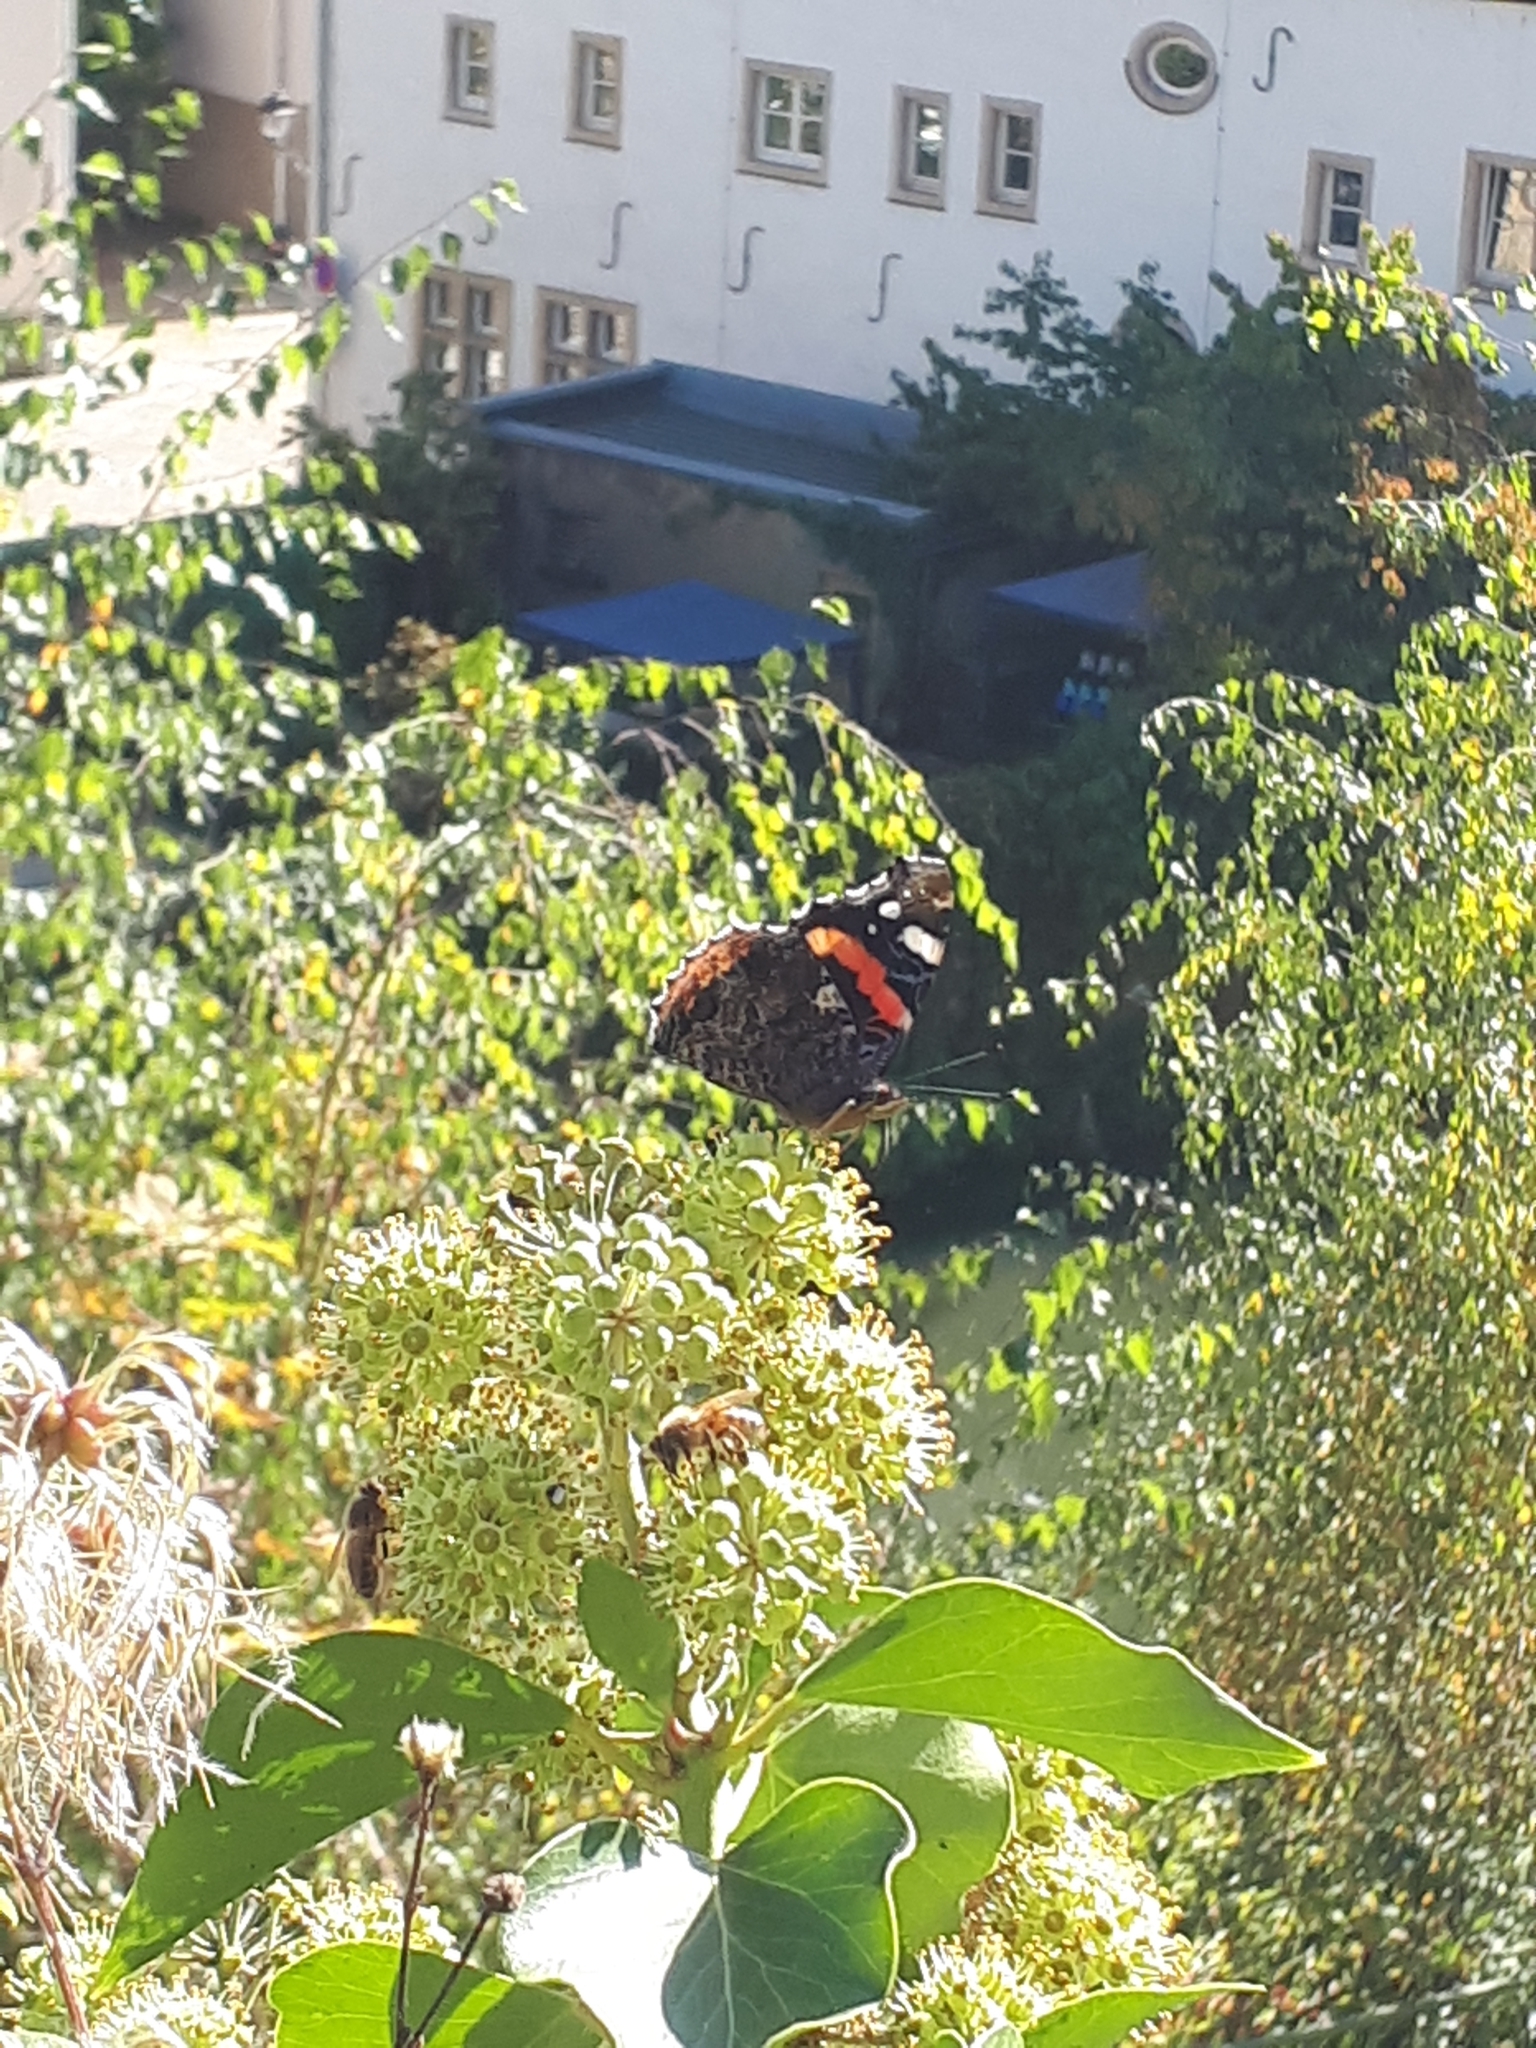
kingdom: Animalia
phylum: Arthropoda
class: Insecta
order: Lepidoptera
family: Nymphalidae
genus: Vanessa
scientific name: Vanessa atalanta
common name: Red admiral
